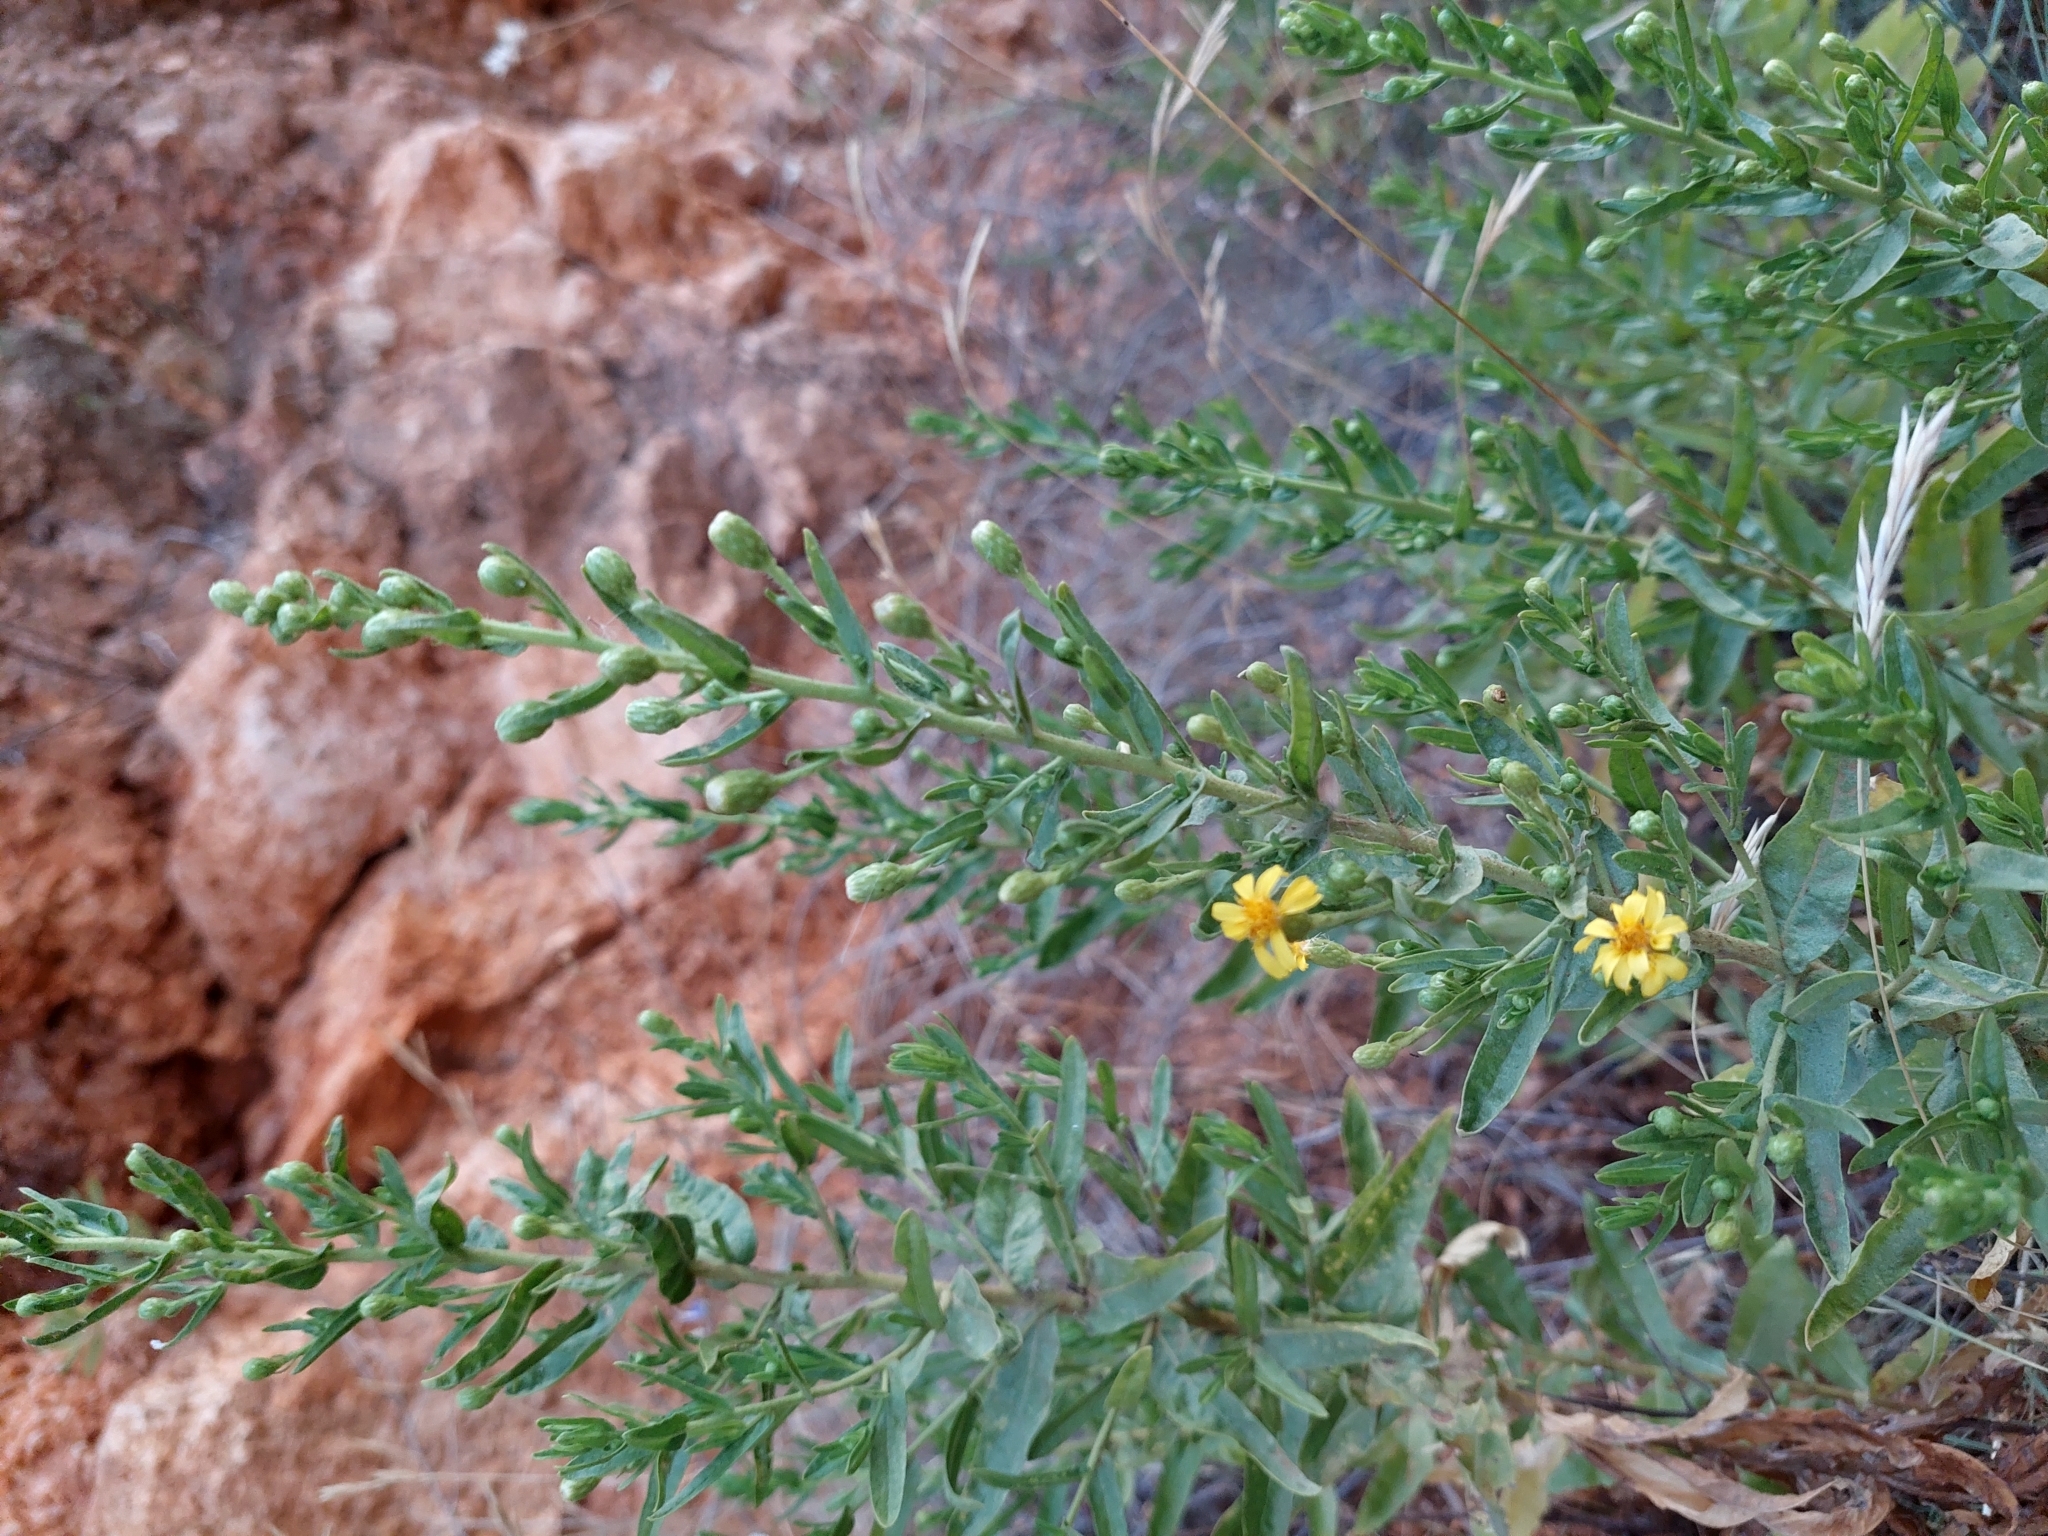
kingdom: Plantae
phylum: Tracheophyta
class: Magnoliopsida
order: Asterales
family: Asteraceae
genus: Dittrichia
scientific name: Dittrichia viscosa
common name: Woody fleabane
